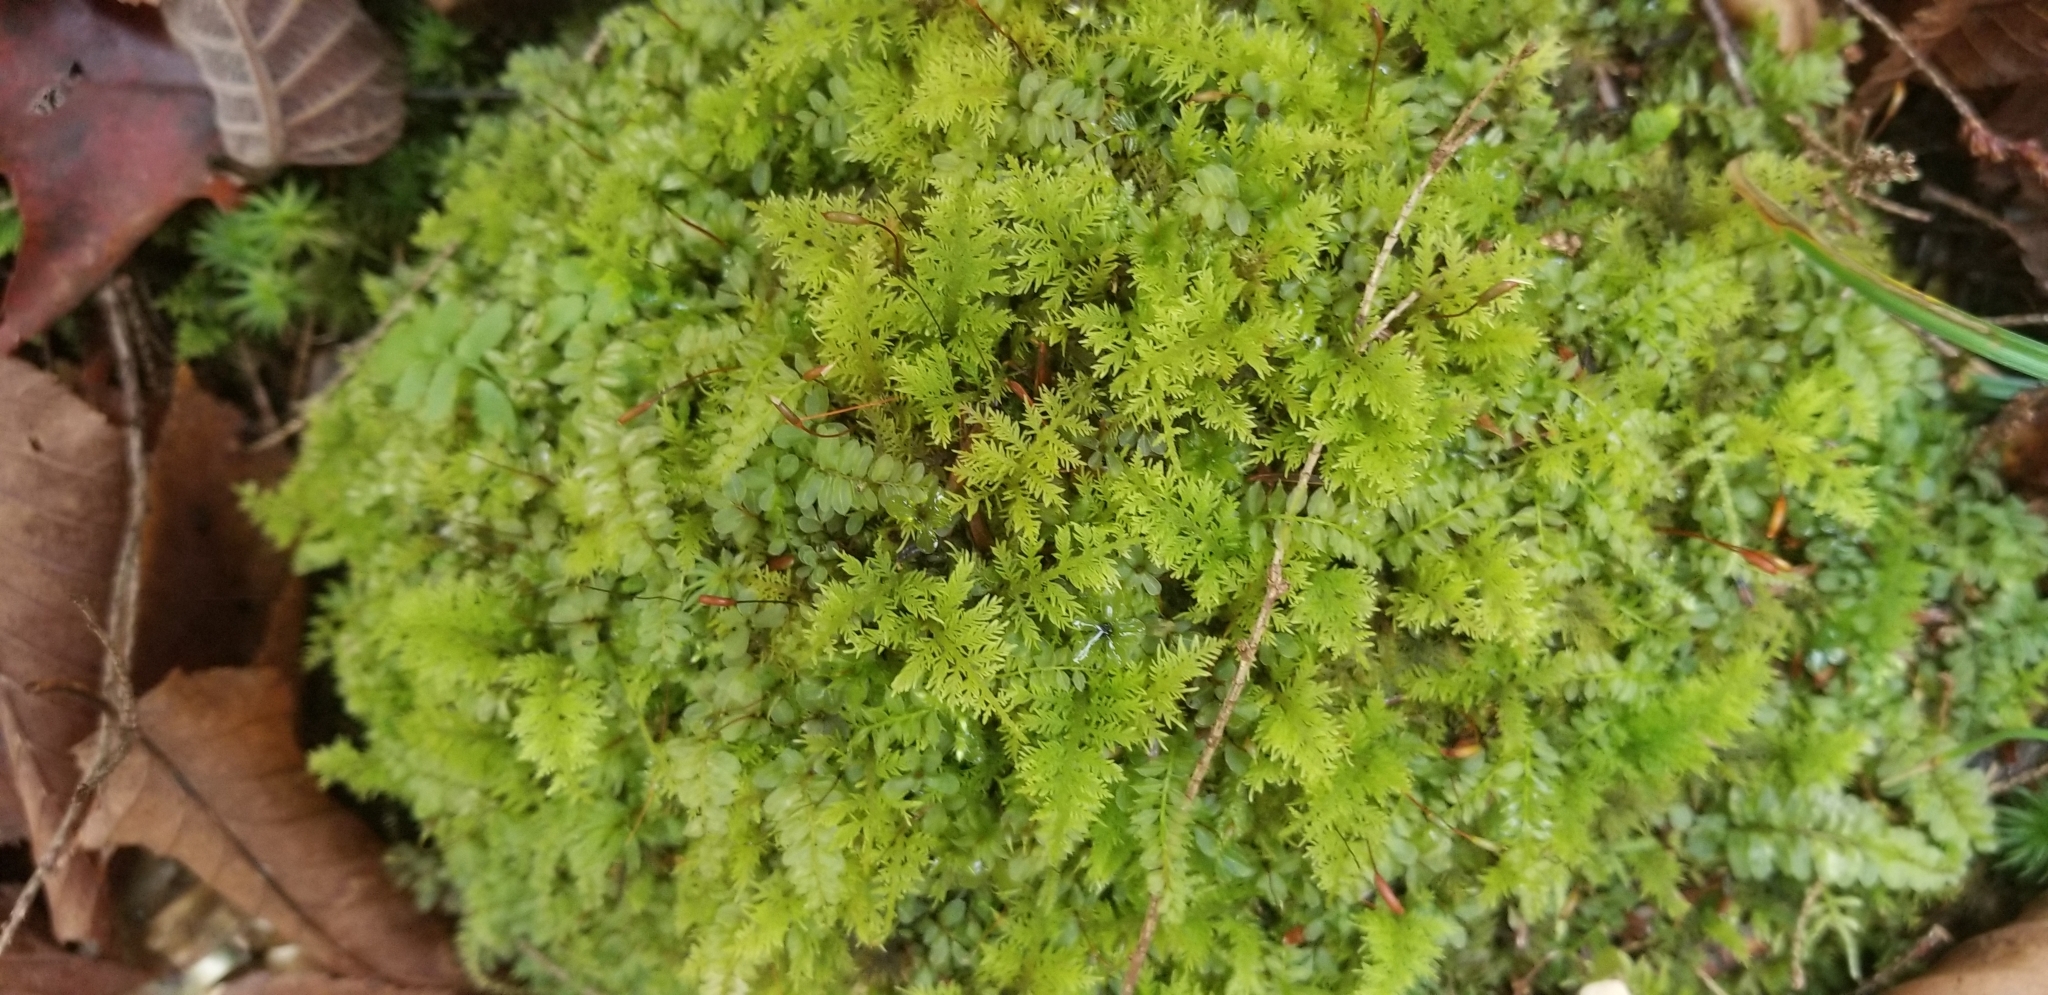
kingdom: Plantae
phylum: Bryophyta
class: Bryopsida
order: Hypnales
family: Thuidiaceae
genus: Thuidium
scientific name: Thuidium delicatulum
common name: Delicate fern moss
